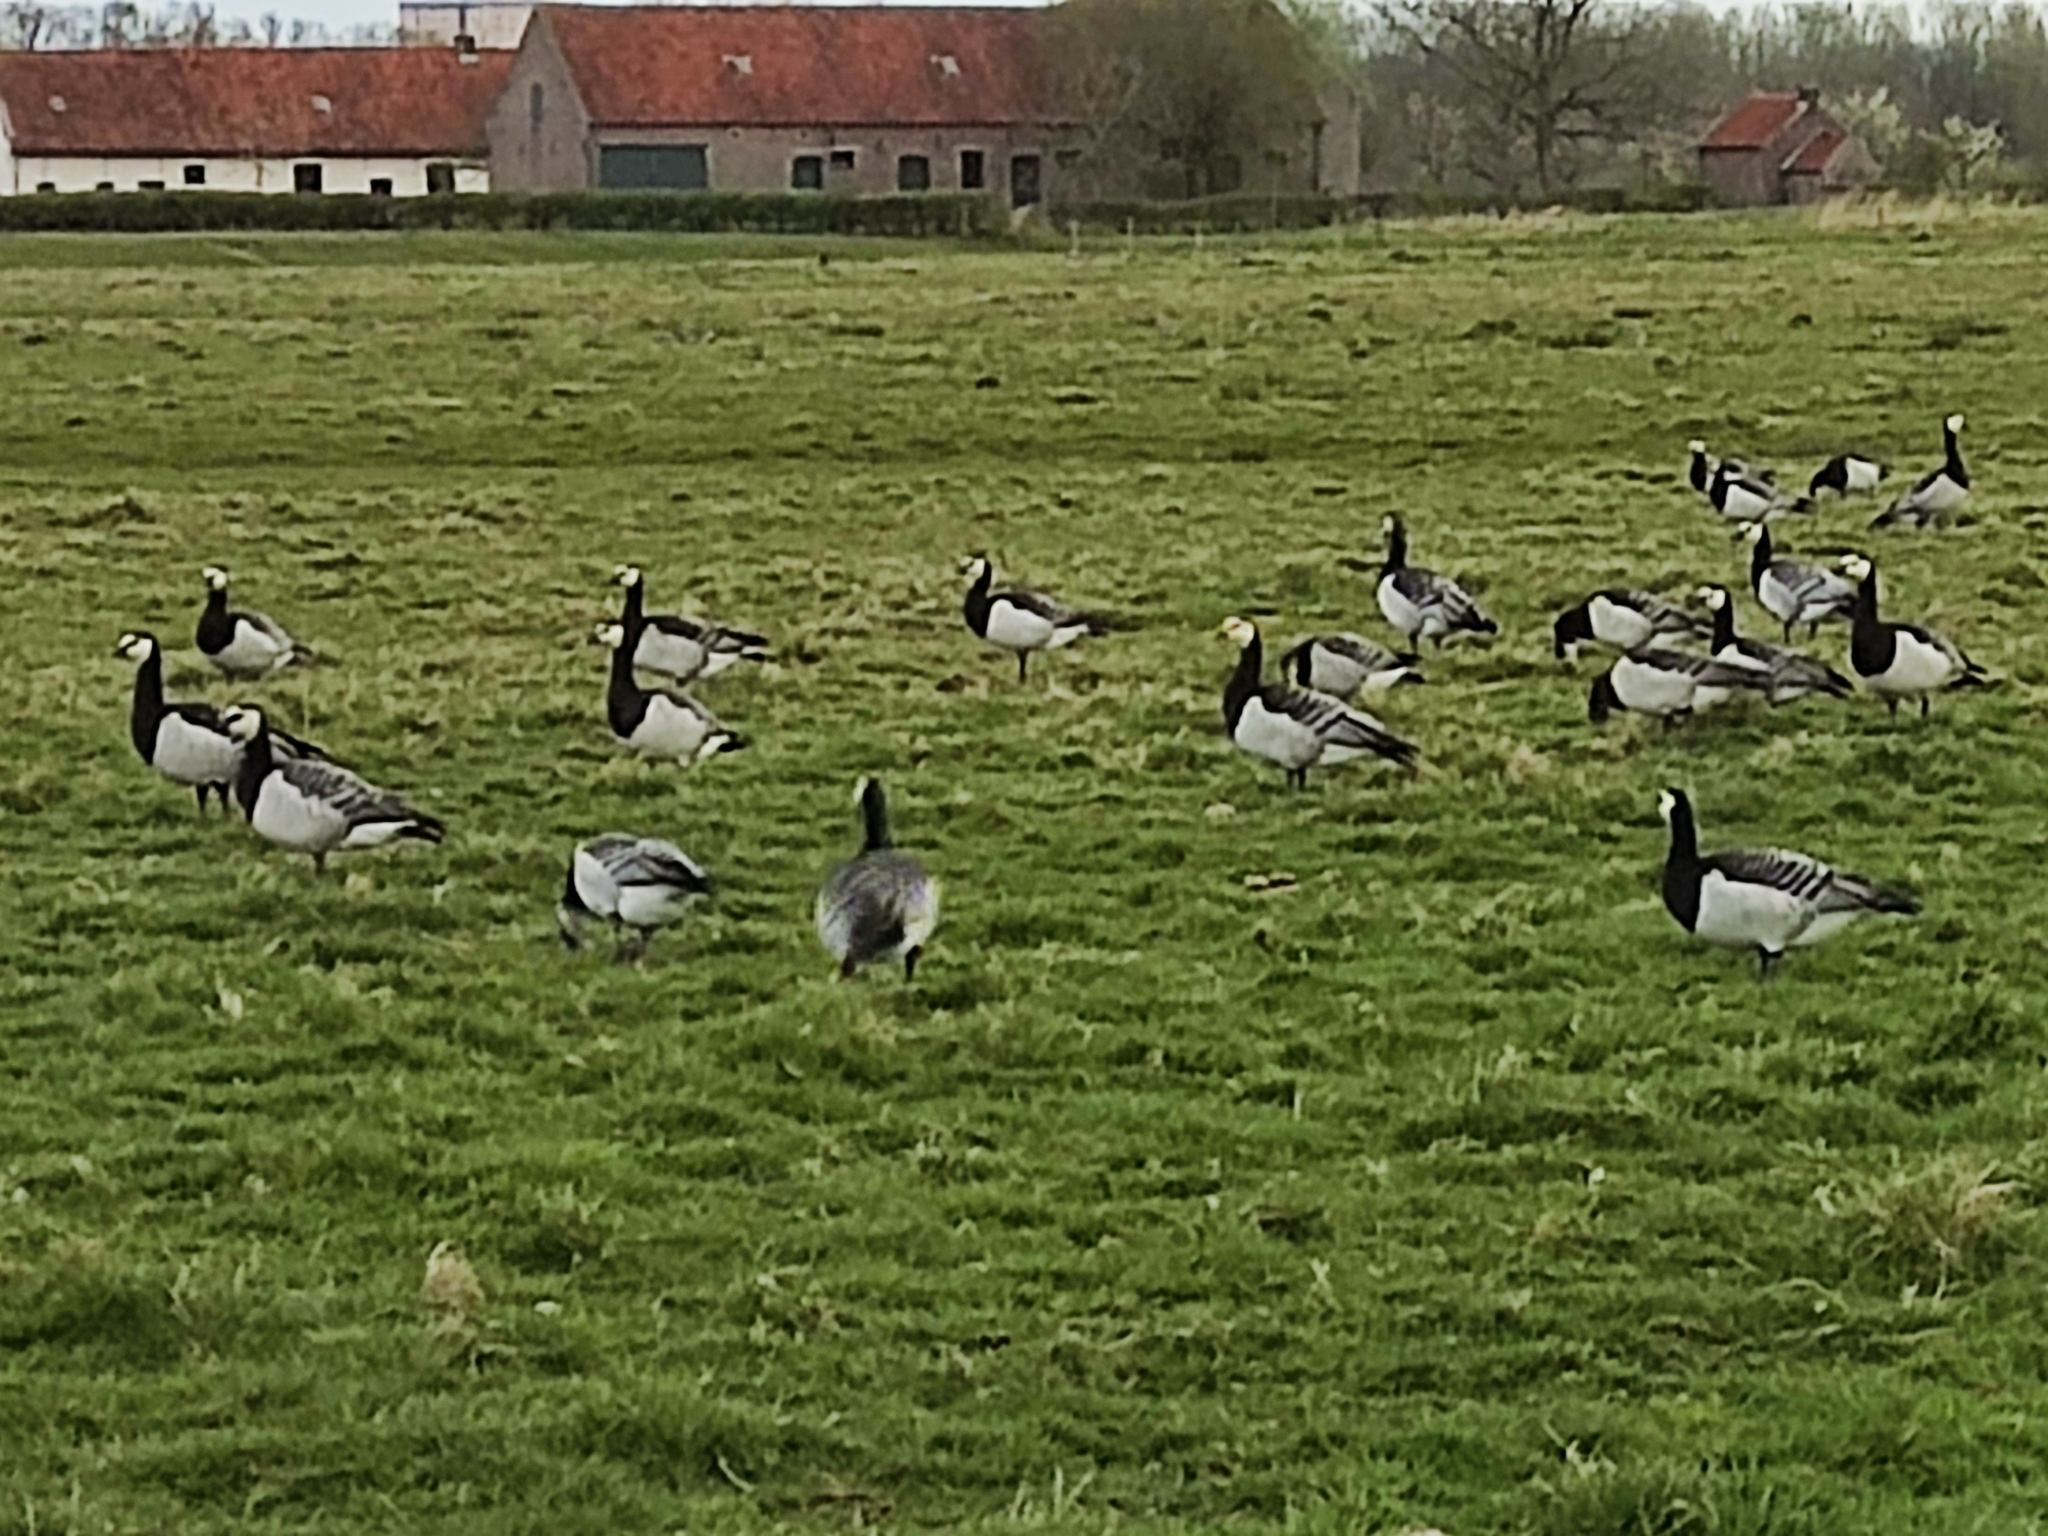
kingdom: Animalia
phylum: Chordata
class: Aves
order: Anseriformes
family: Anatidae
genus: Branta
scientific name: Branta leucopsis
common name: Barnacle goose
